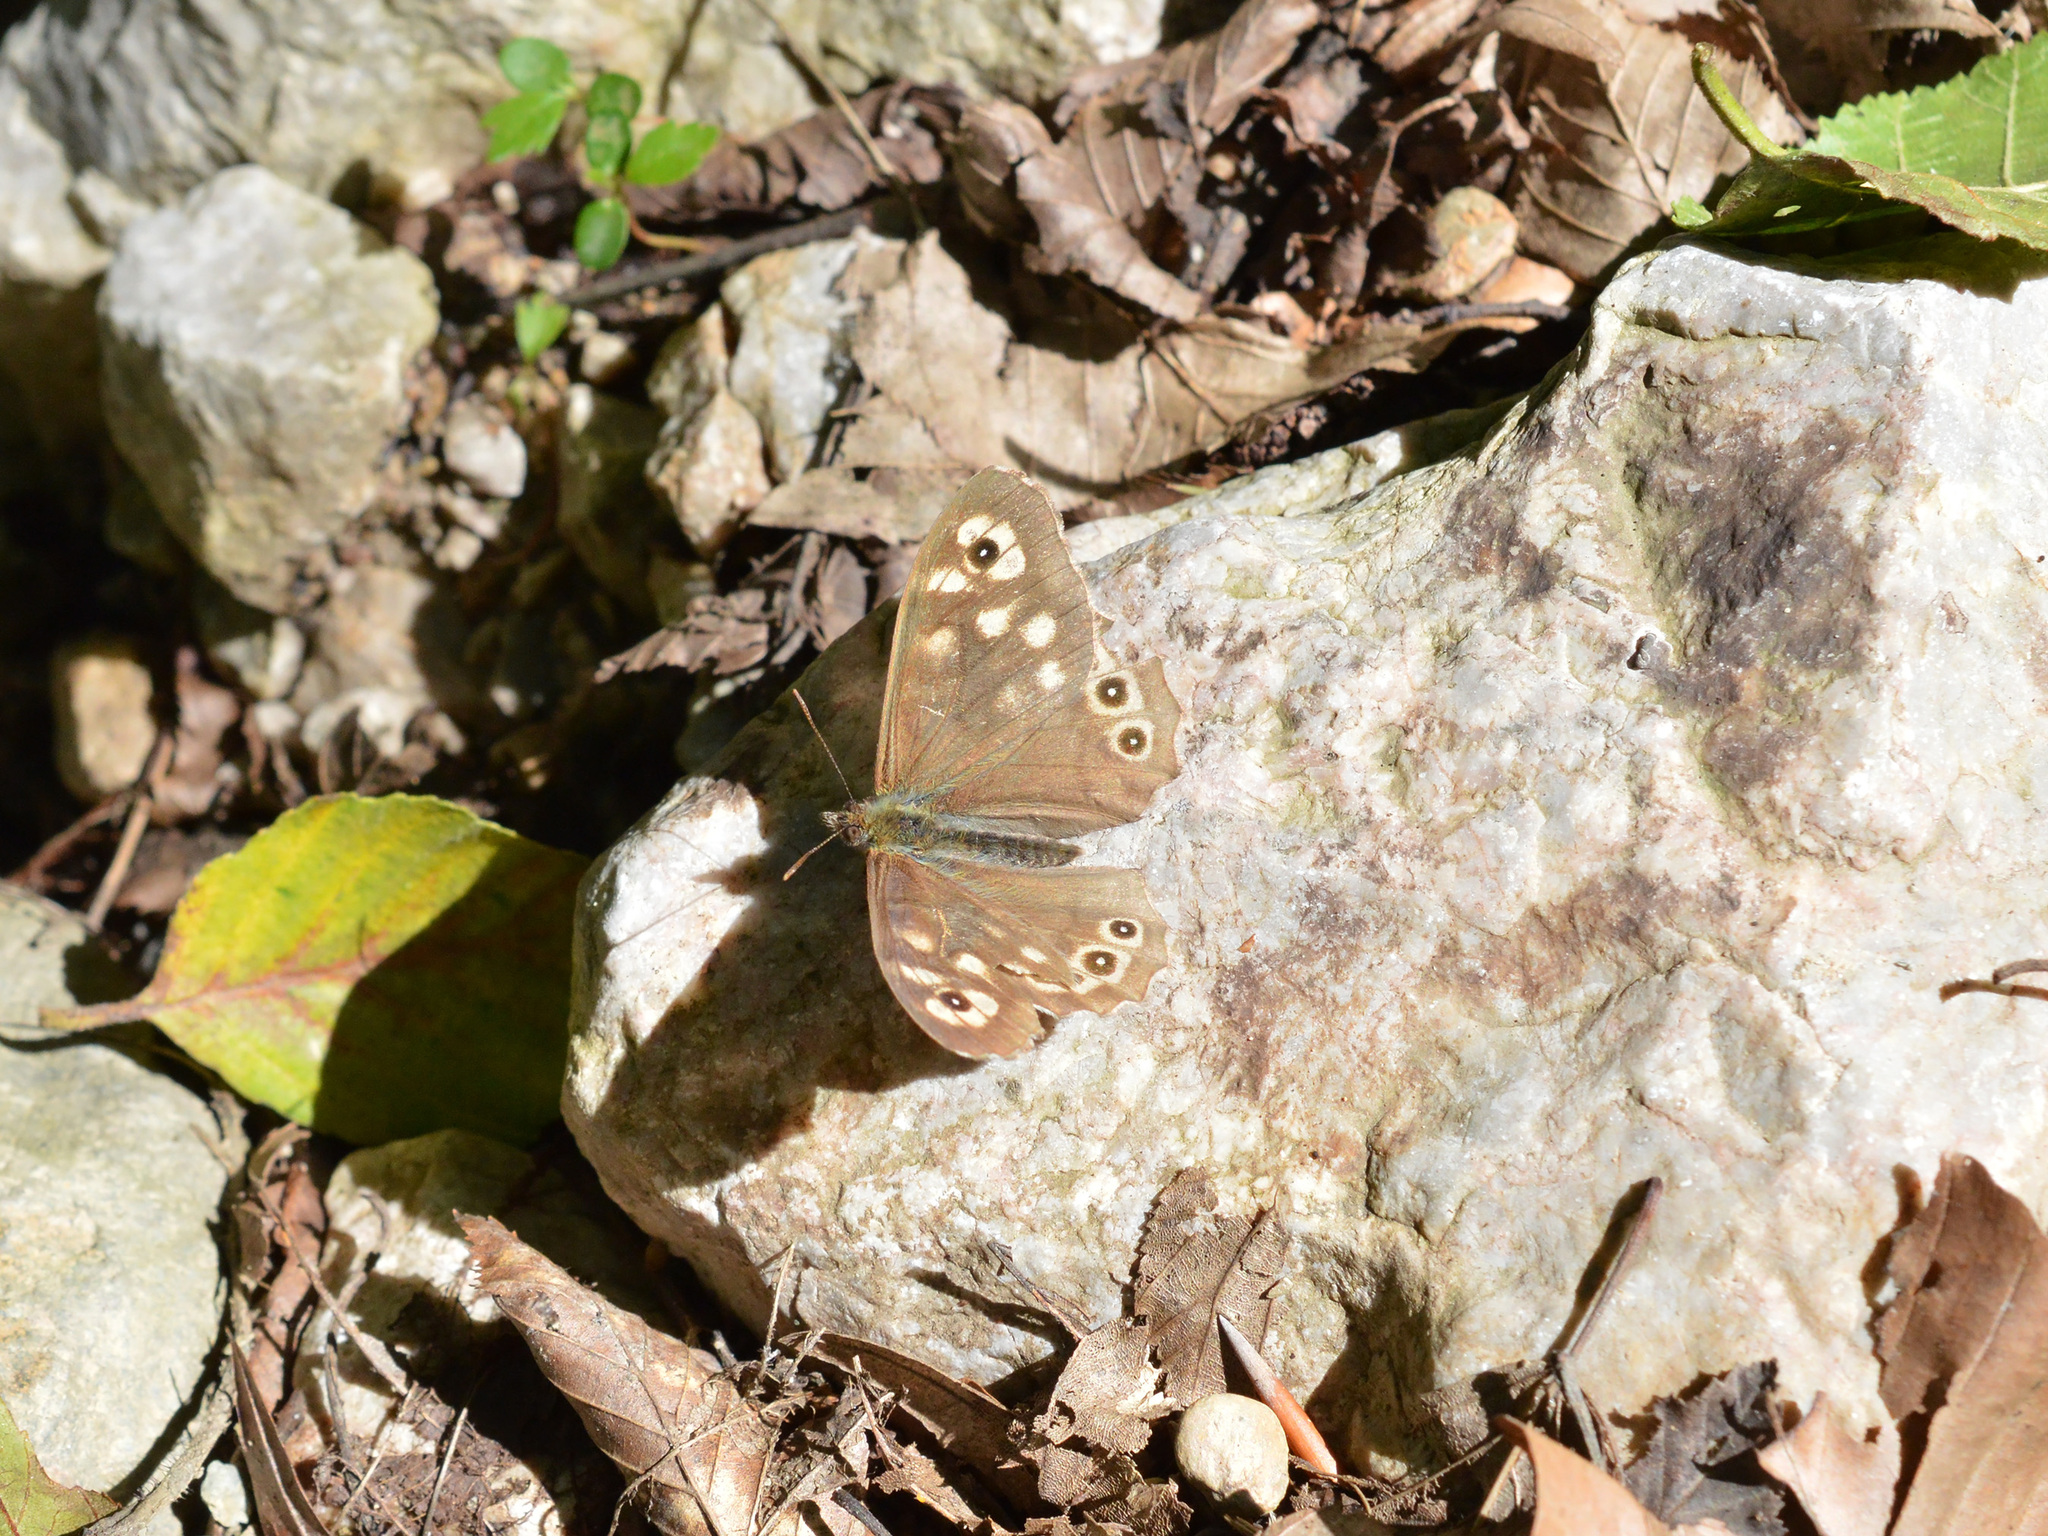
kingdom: Animalia
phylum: Arthropoda
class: Insecta
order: Lepidoptera
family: Nymphalidae
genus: Pararge
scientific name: Pararge aegeria
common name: Speckled wood
